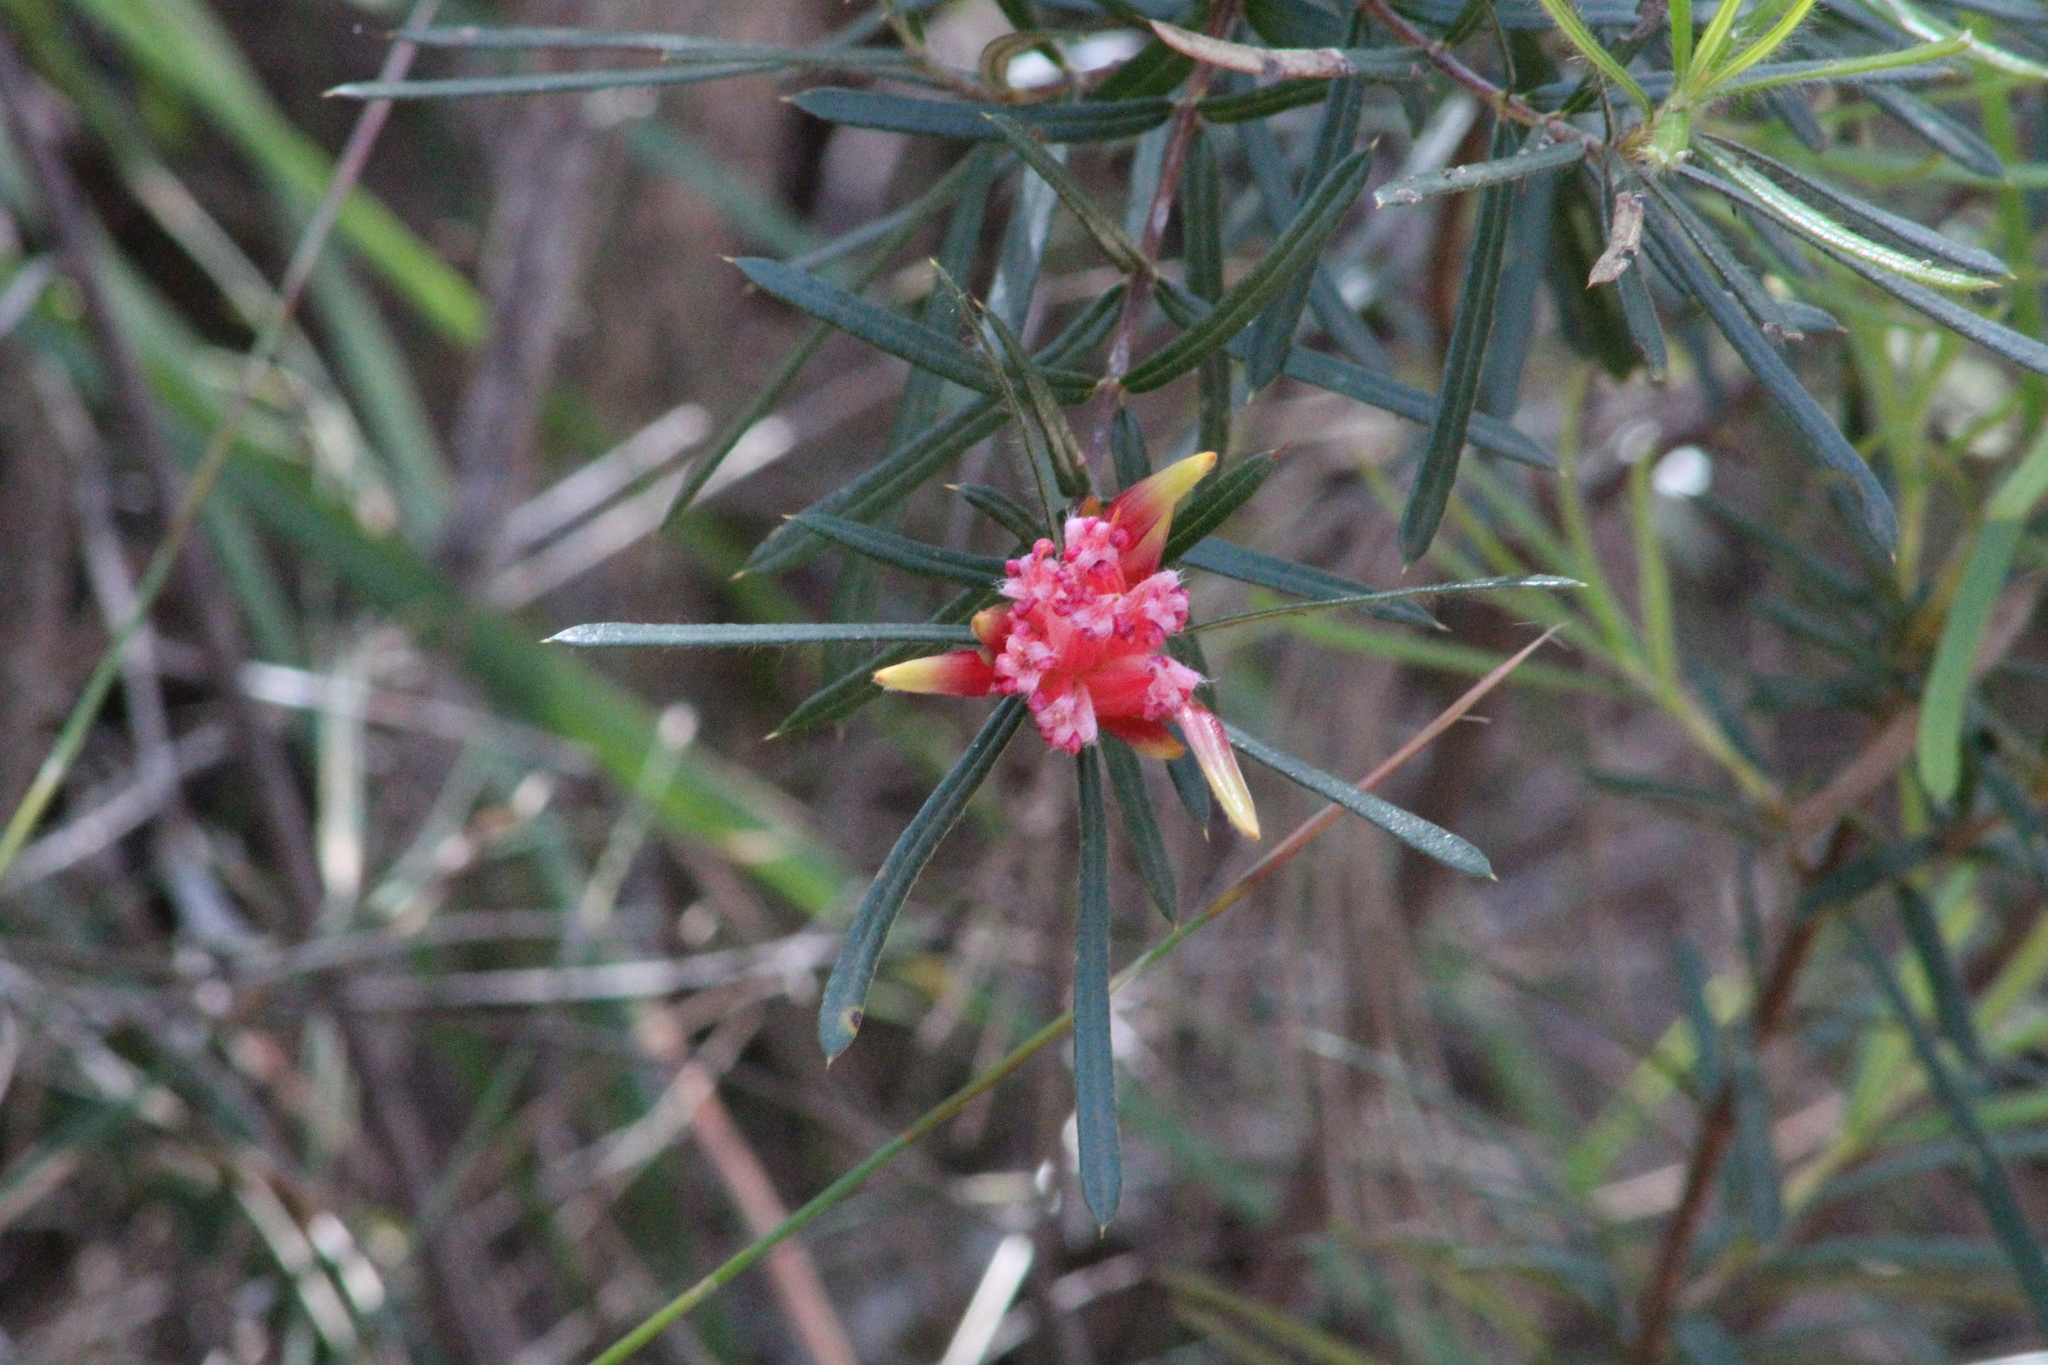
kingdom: Plantae
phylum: Tracheophyta
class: Magnoliopsida
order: Proteales
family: Proteaceae
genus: Lambertia
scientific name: Lambertia formosa
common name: Mountain-devil
